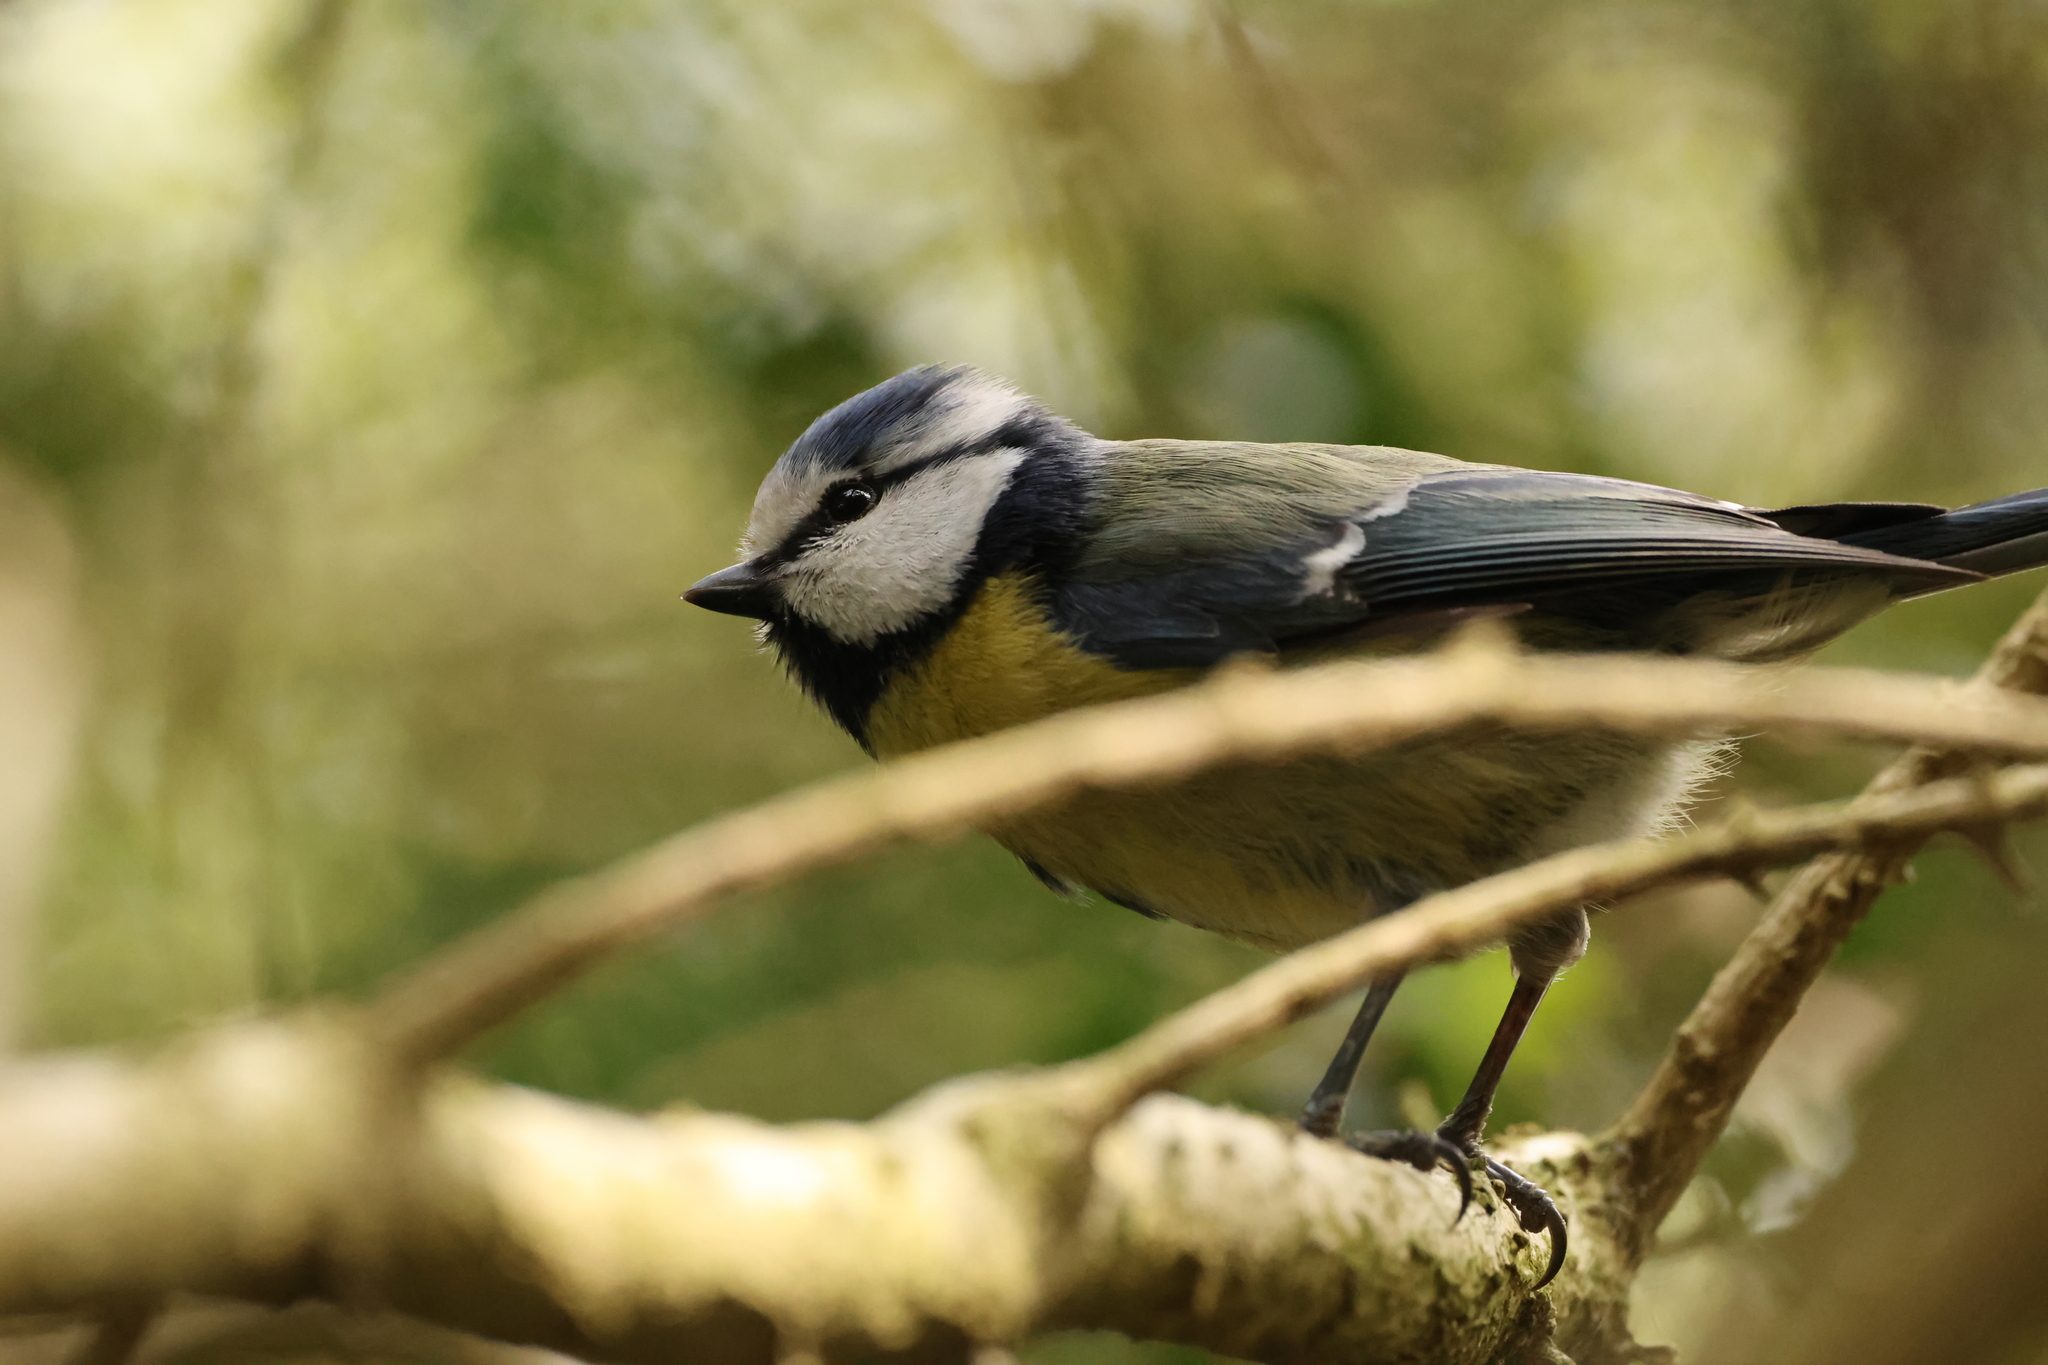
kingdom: Animalia
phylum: Chordata
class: Aves
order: Passeriformes
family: Paridae
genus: Cyanistes
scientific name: Cyanistes caeruleus
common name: Eurasian blue tit
